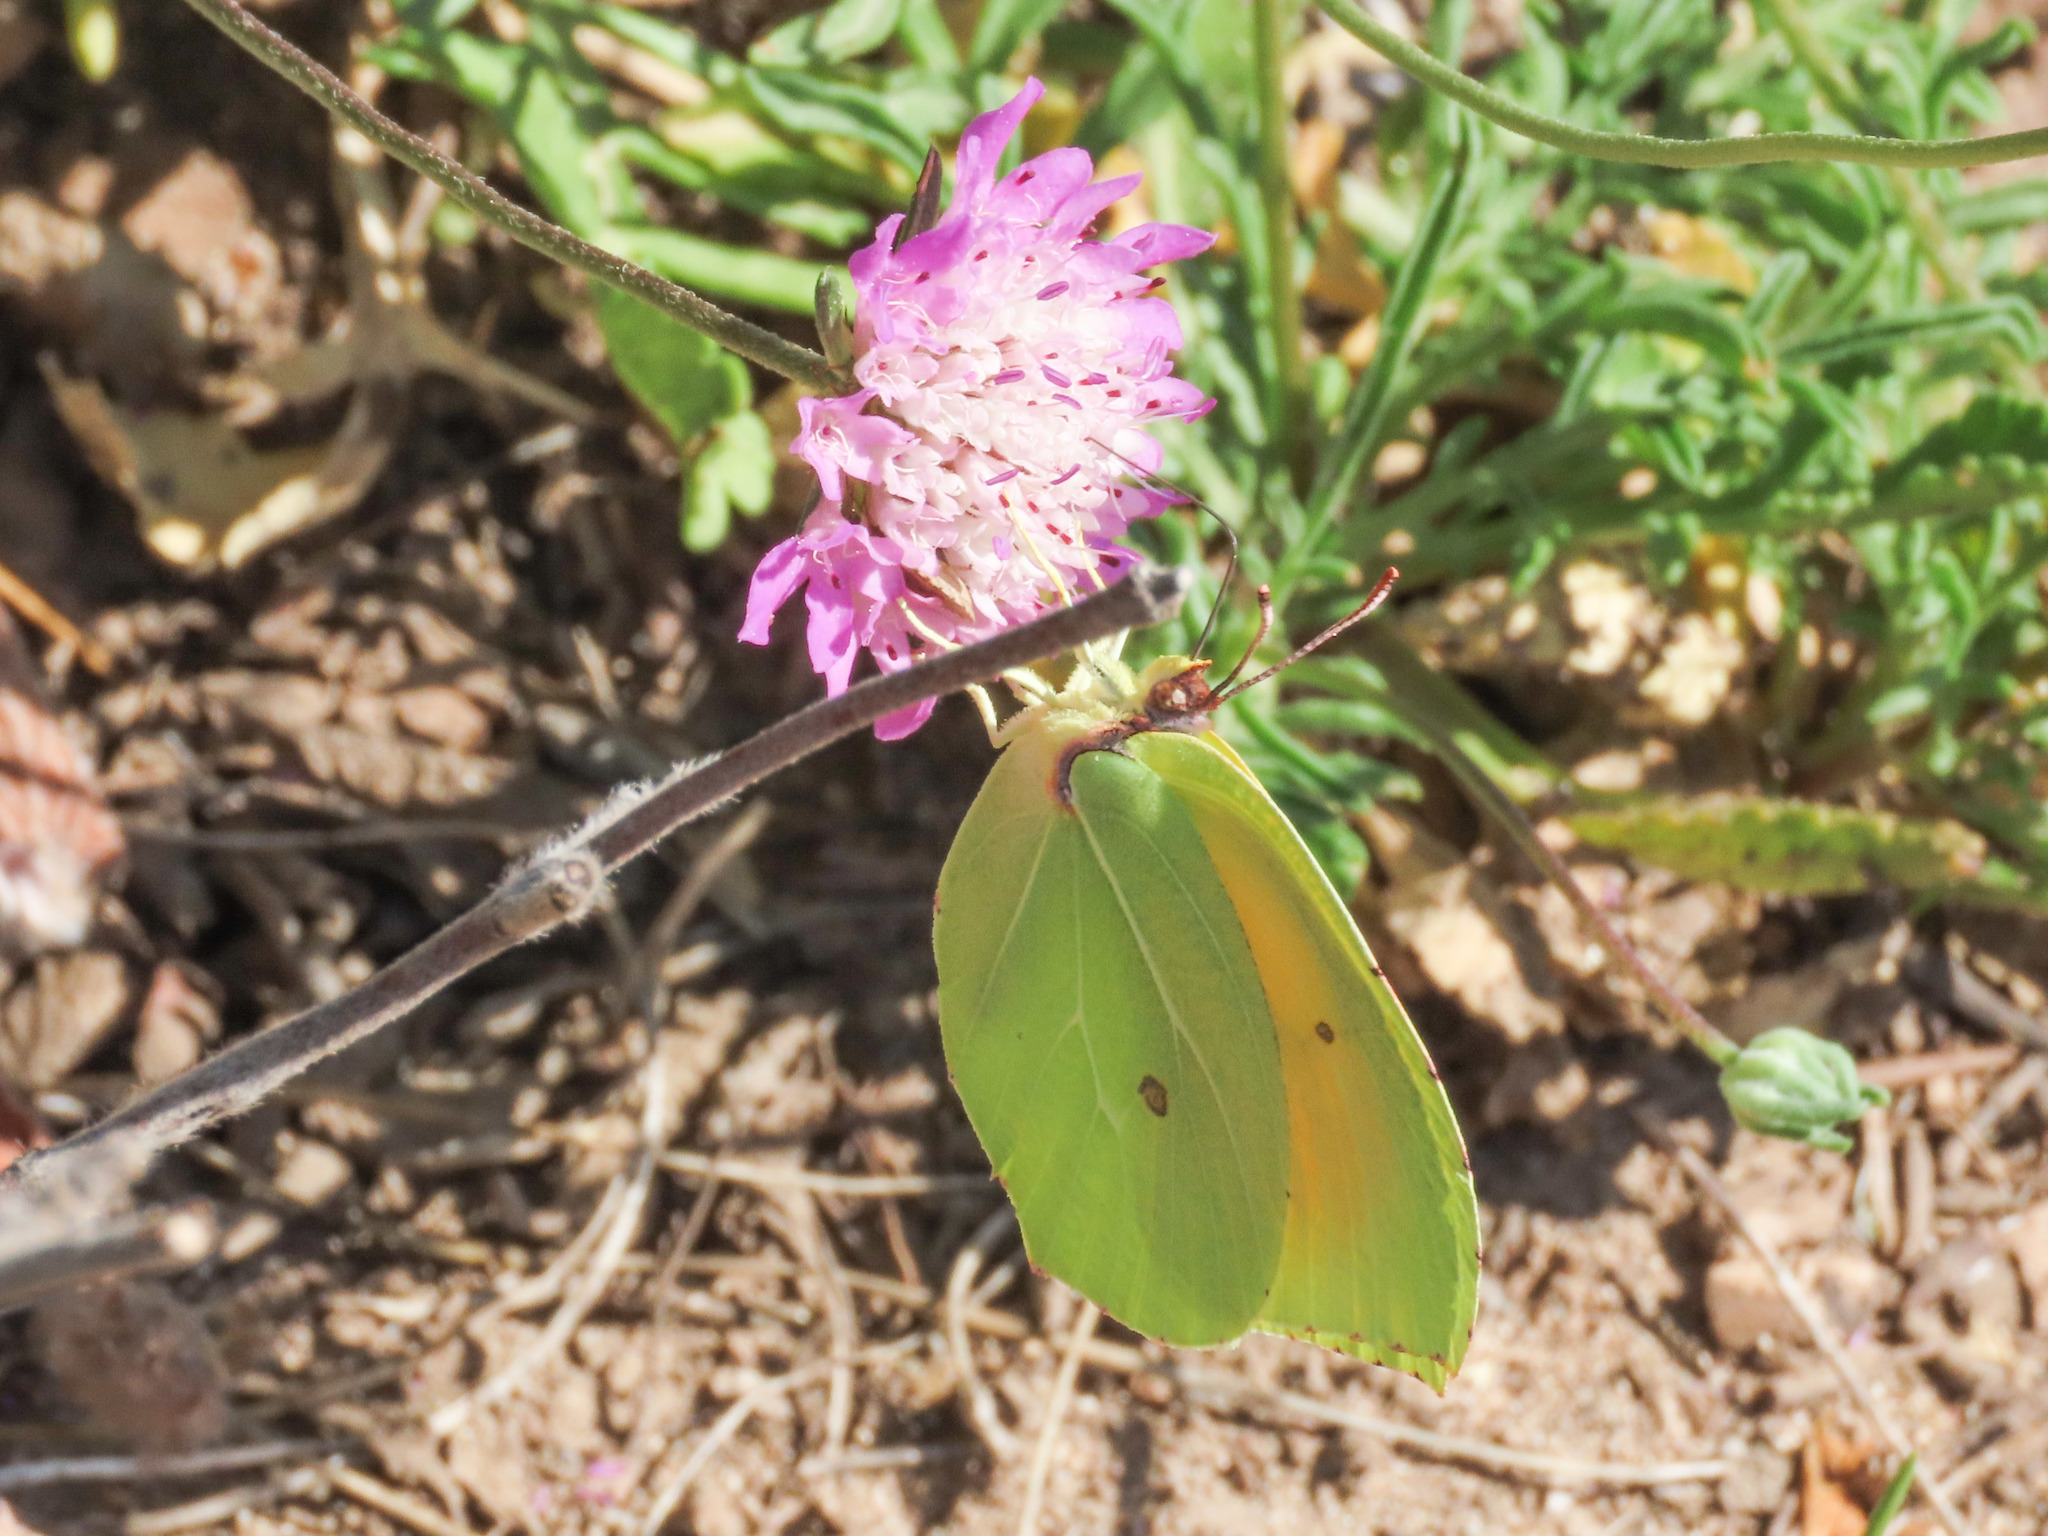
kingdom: Animalia
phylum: Arthropoda
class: Insecta
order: Lepidoptera
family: Pieridae
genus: Gonepteryx
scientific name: Gonepteryx cleopatra
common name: Cleopatra
